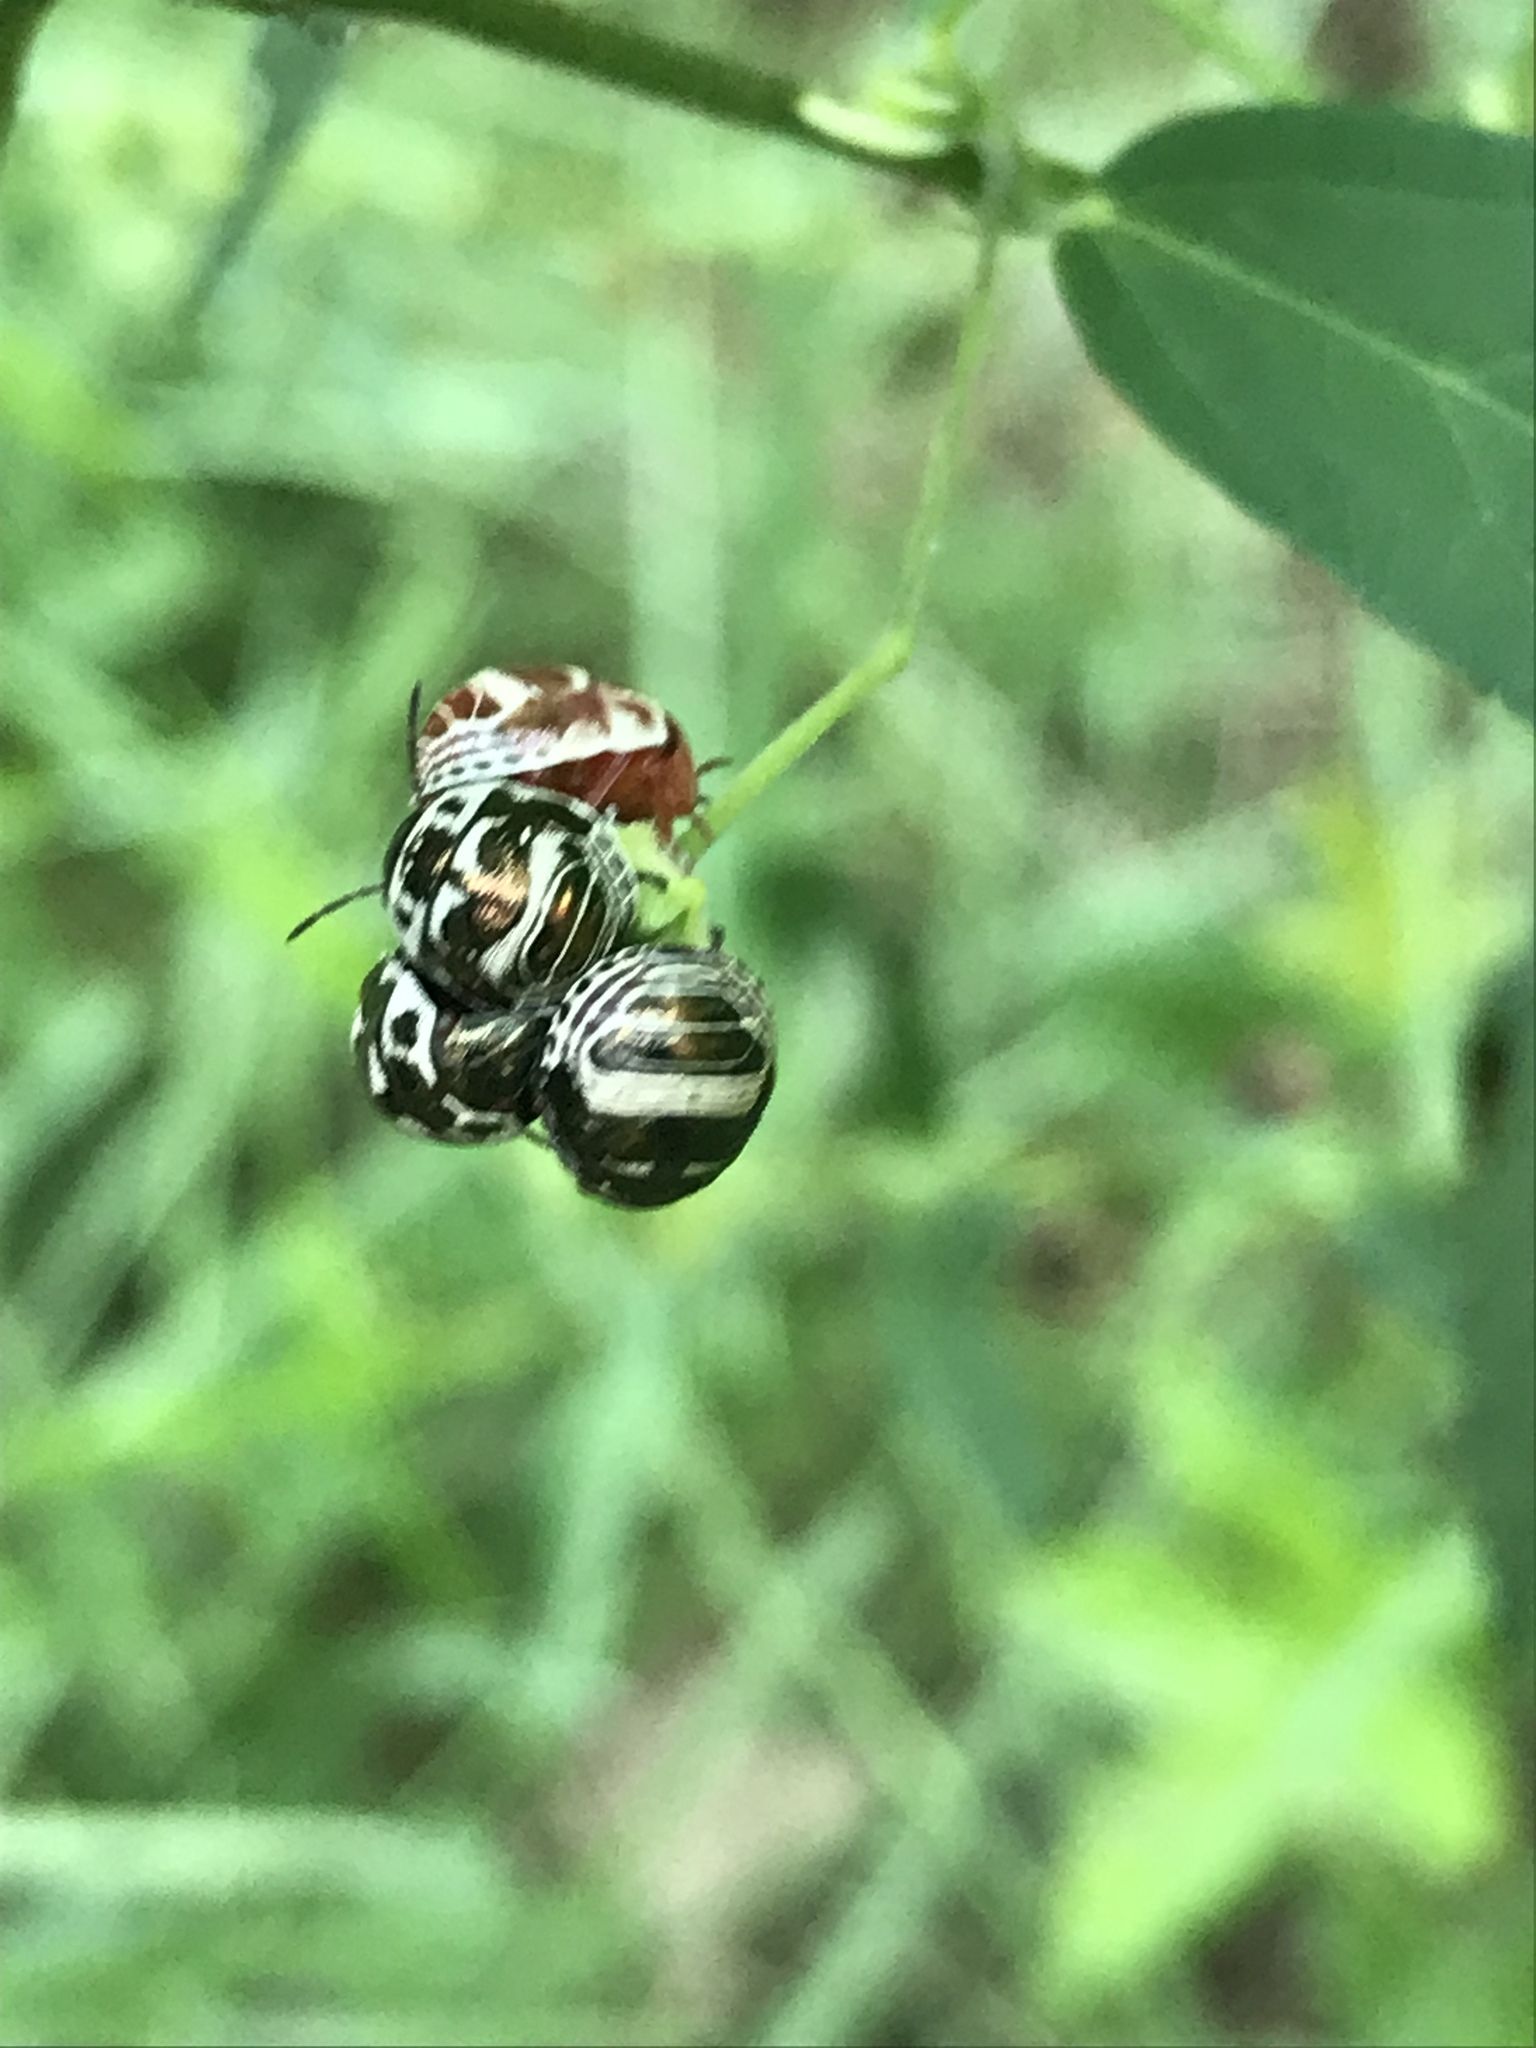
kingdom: Animalia
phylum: Arthropoda
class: Insecta
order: Hemiptera
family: Scutelleridae
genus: Orsilochides
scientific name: Orsilochides
